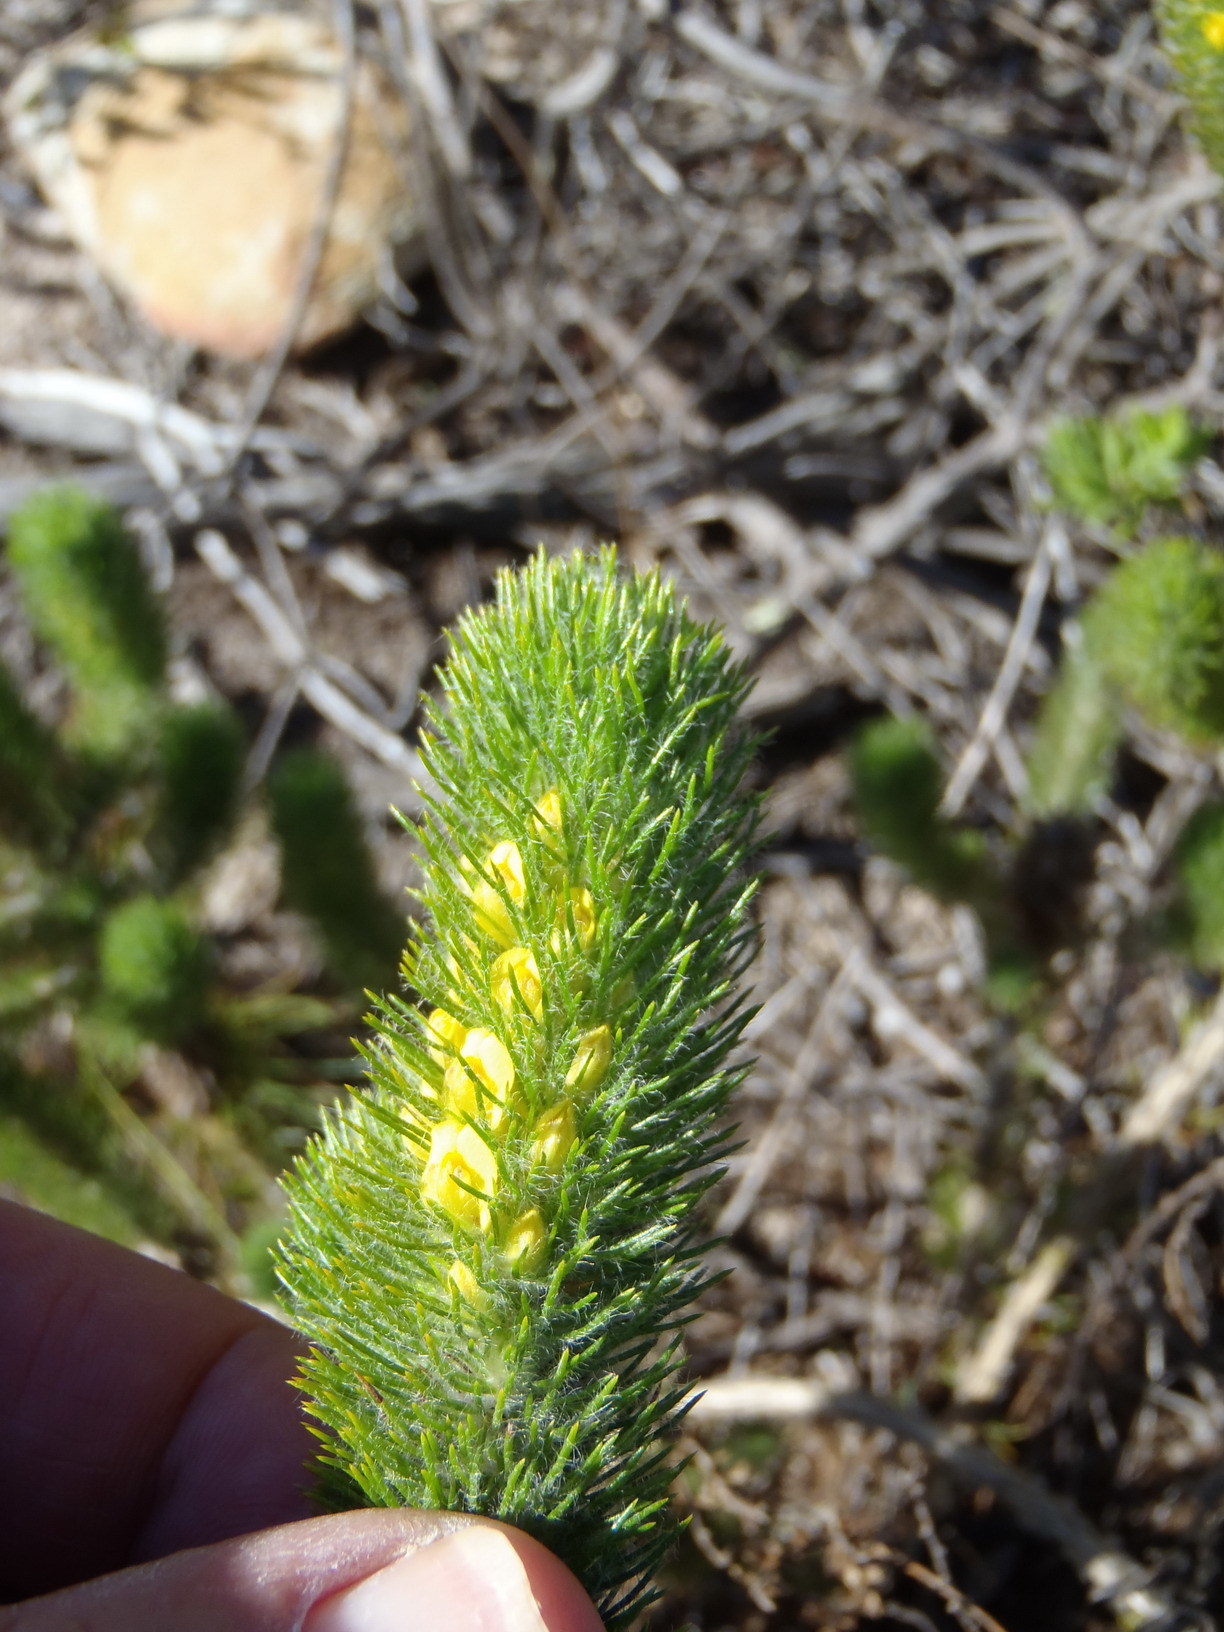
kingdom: Plantae
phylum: Tracheophyta
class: Magnoliopsida
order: Fabales
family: Fabaceae
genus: Aspalathus
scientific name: Aspalathus alopecurus
